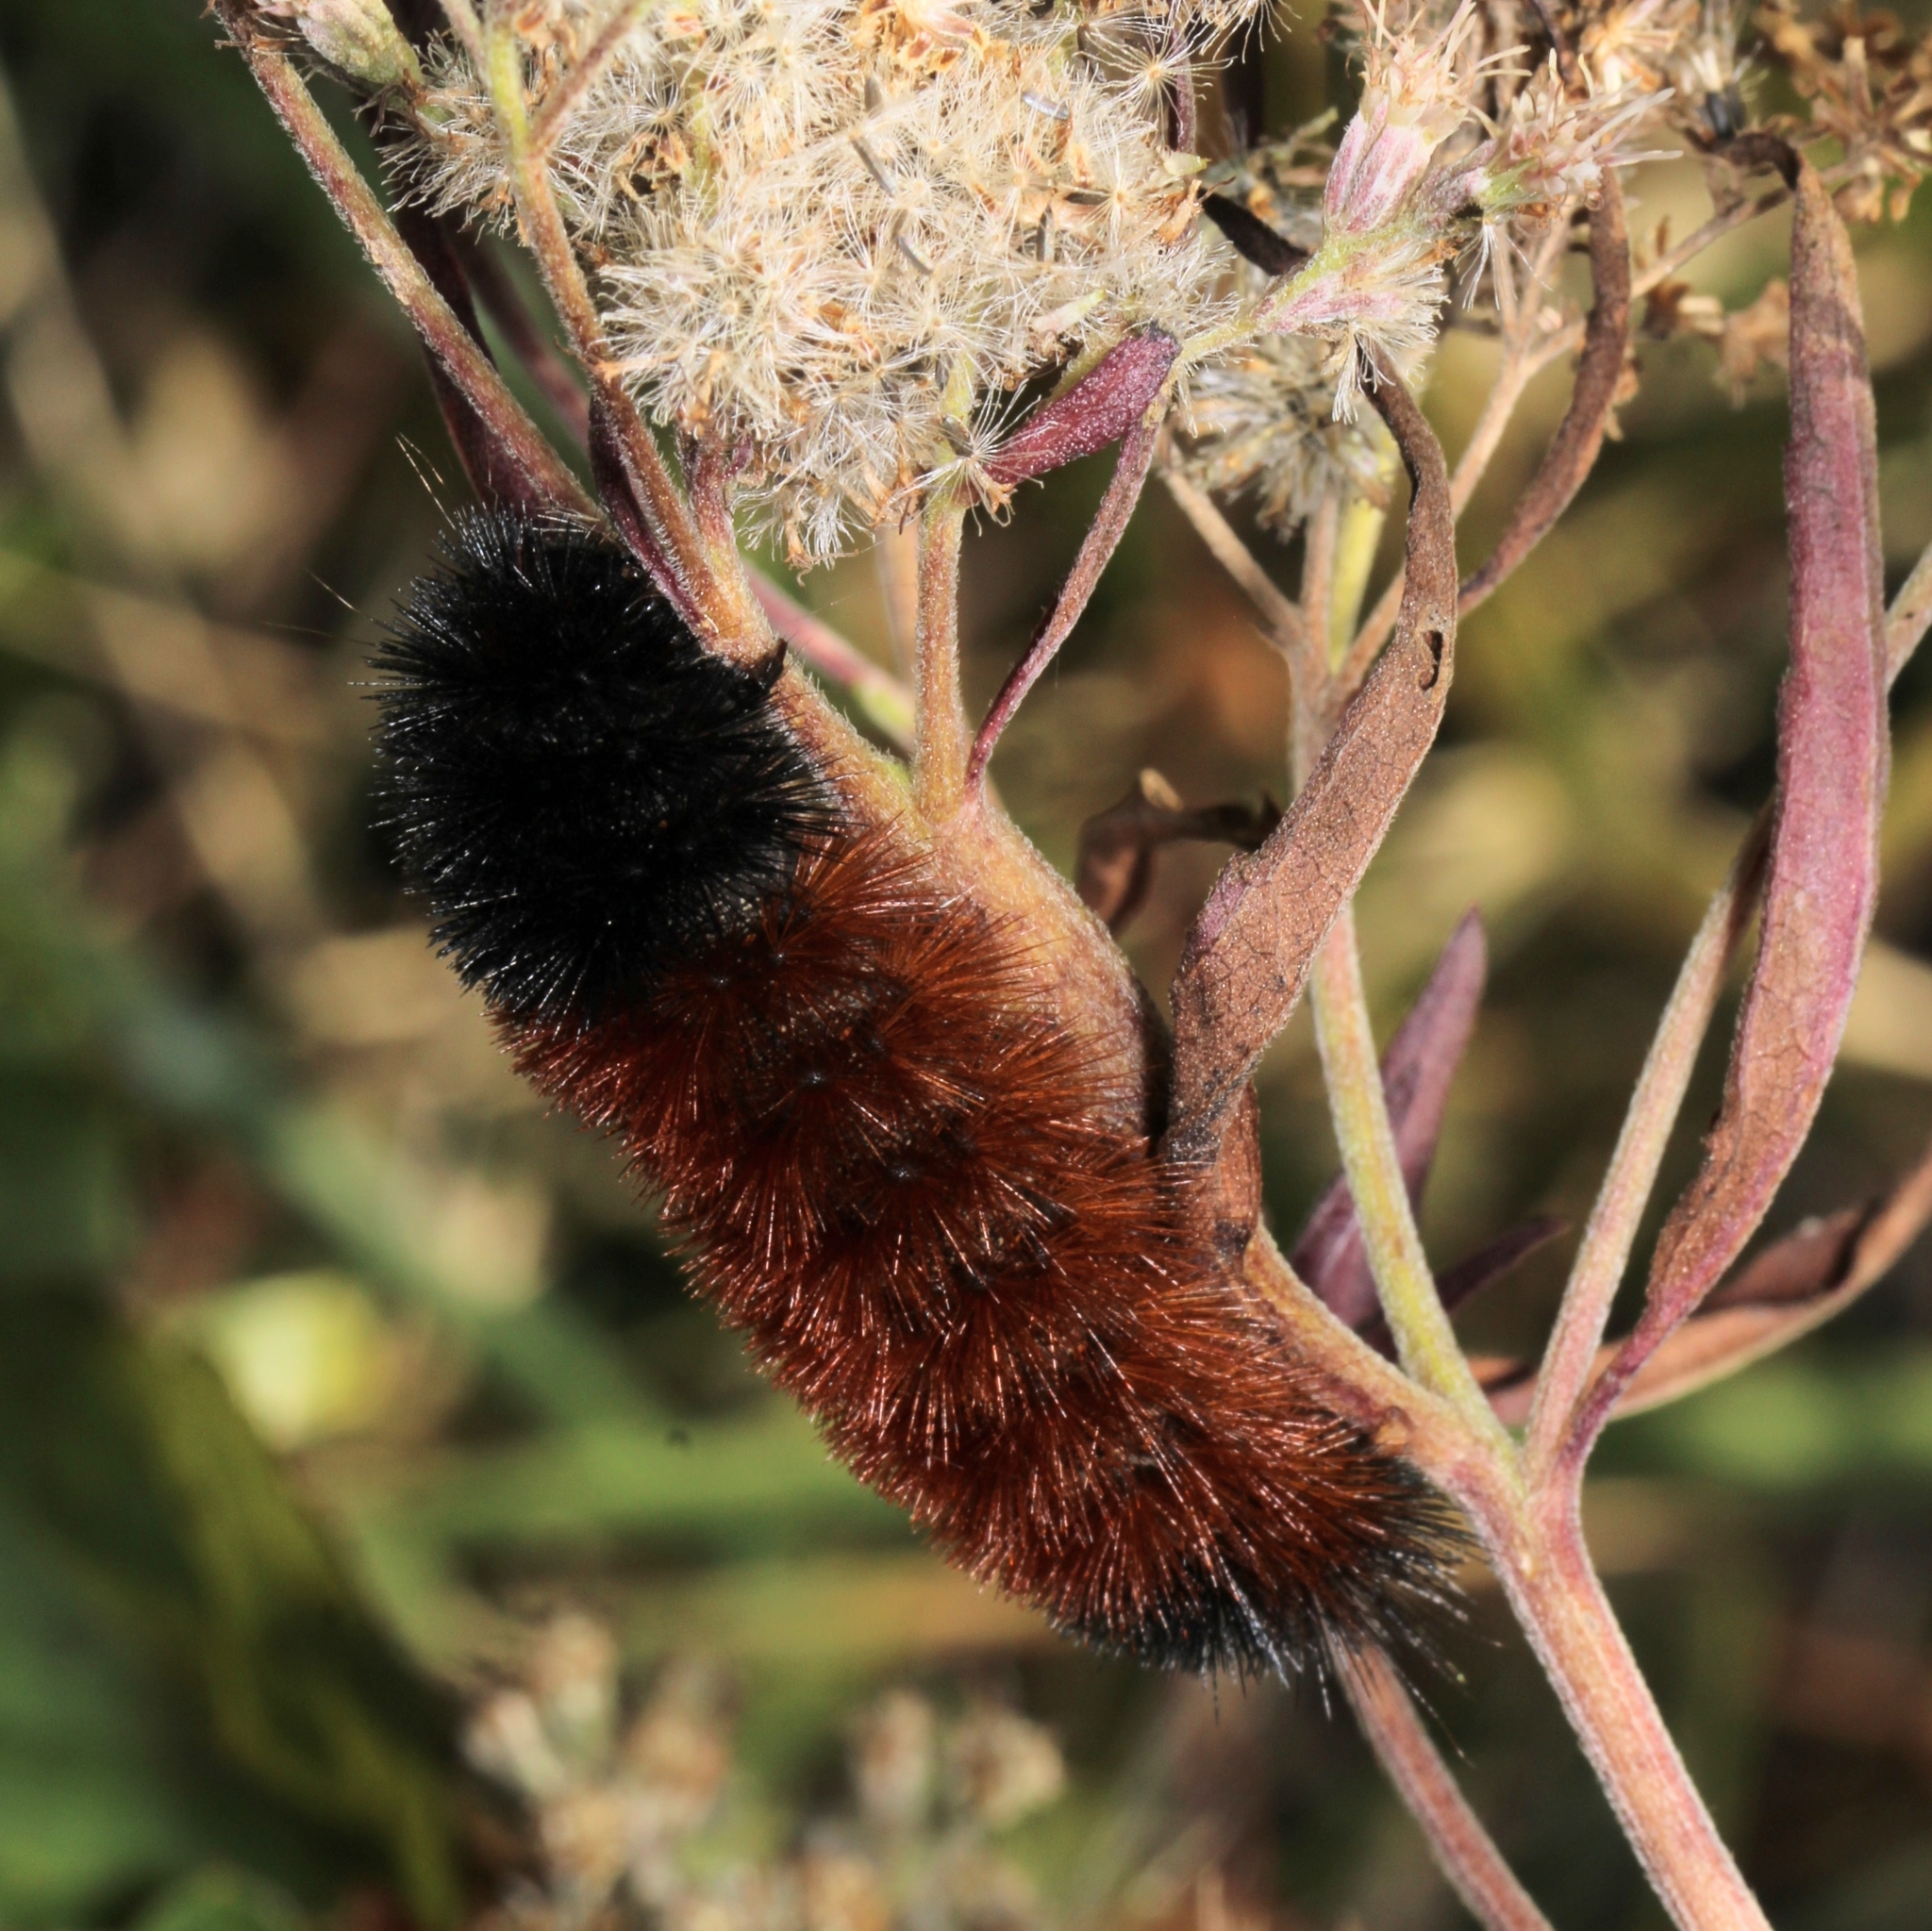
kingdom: Animalia
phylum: Arthropoda
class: Insecta
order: Lepidoptera
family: Erebidae
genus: Pyrrharctia
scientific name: Pyrrharctia isabella
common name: Isabella tiger moth
